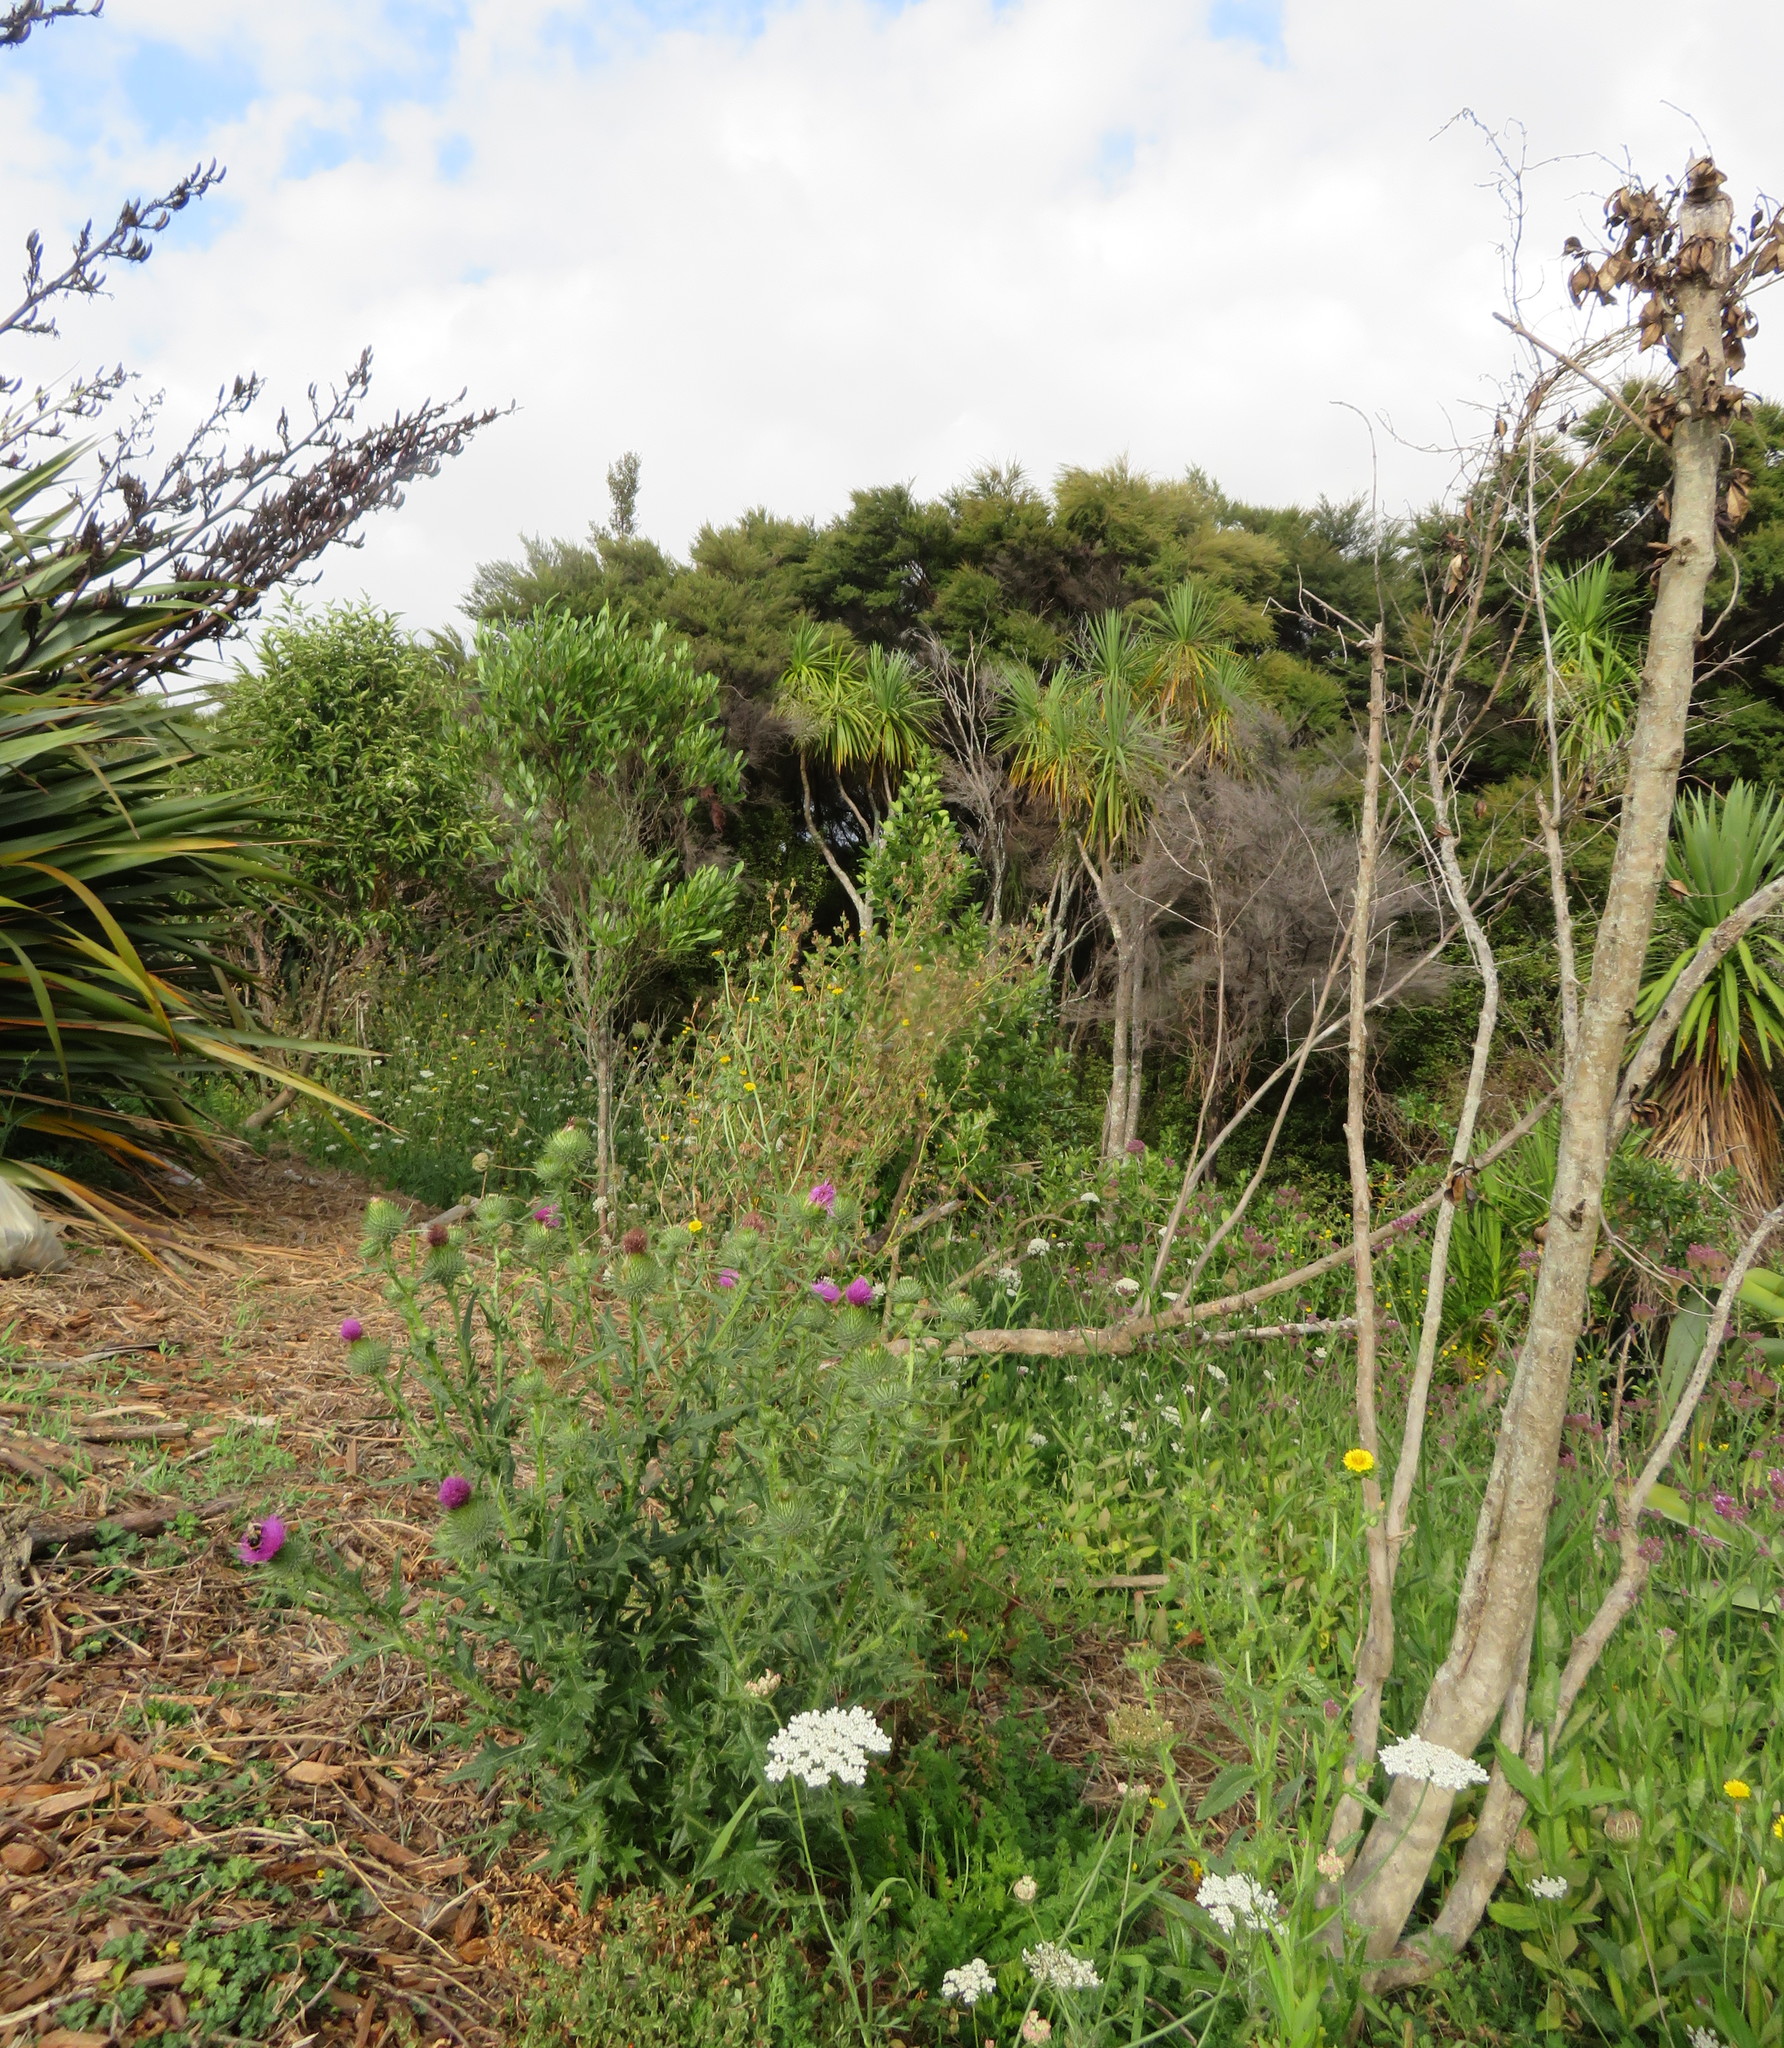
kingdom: Plantae
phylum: Tracheophyta
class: Magnoliopsida
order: Asterales
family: Asteraceae
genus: Cirsium
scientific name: Cirsium vulgare
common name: Bull thistle
